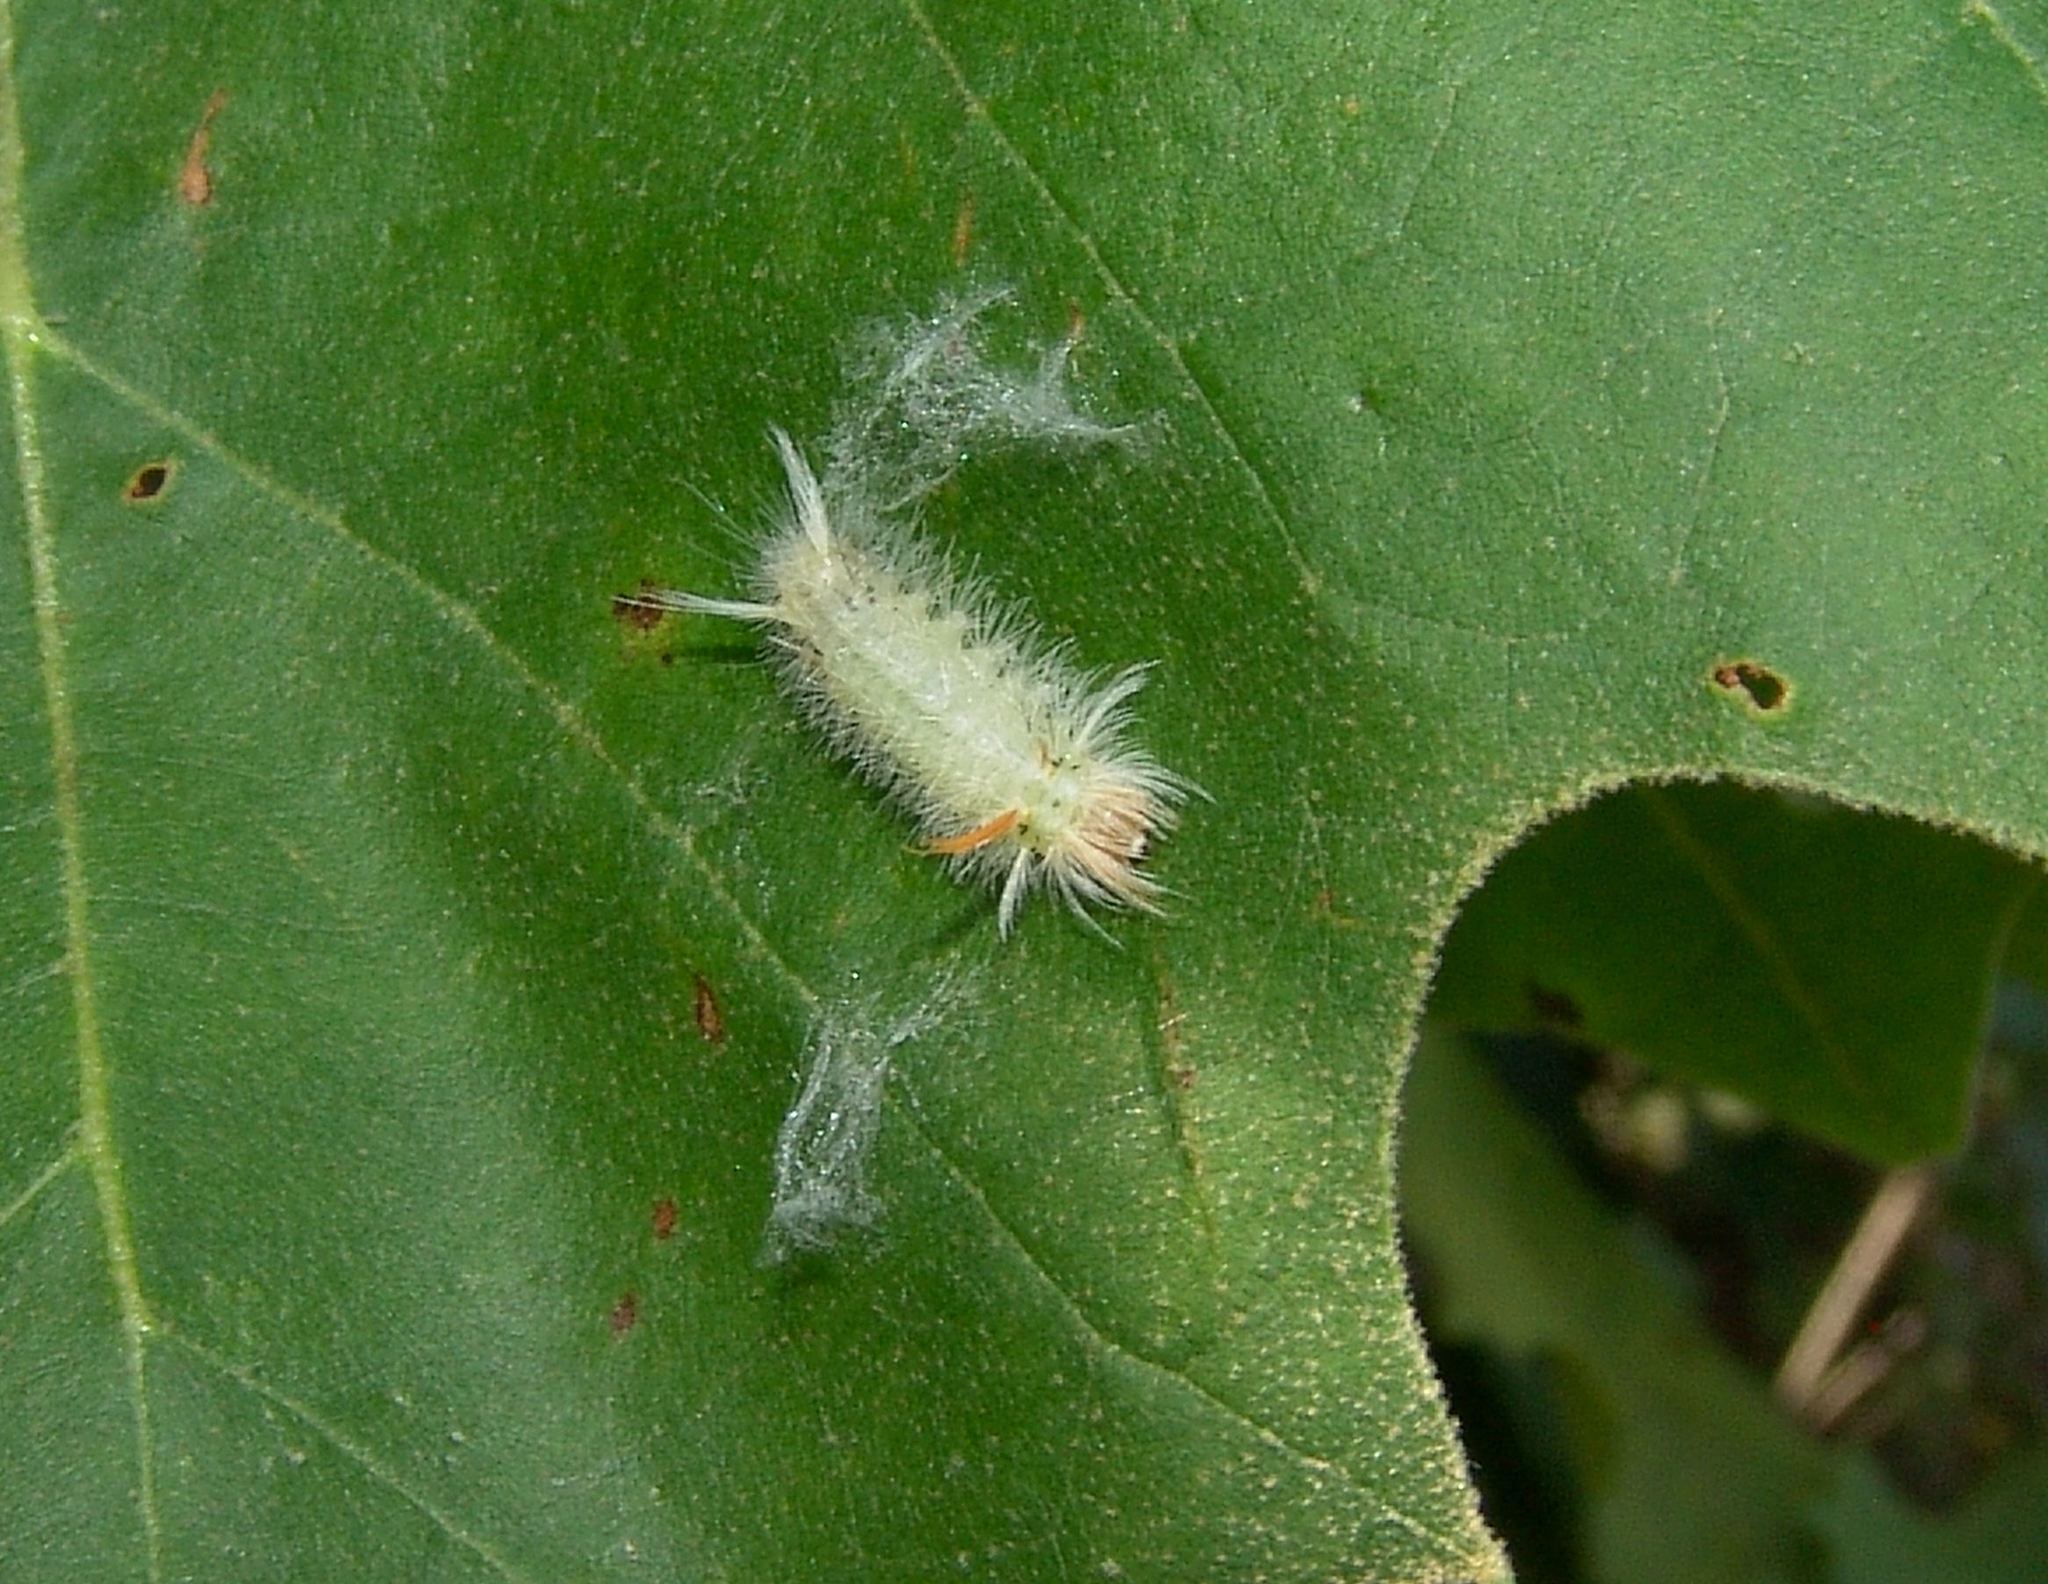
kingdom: Animalia
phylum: Arthropoda
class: Insecta
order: Lepidoptera
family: Erebidae
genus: Halysidota
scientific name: Halysidota harrisii
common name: Sycamore tussock moth
